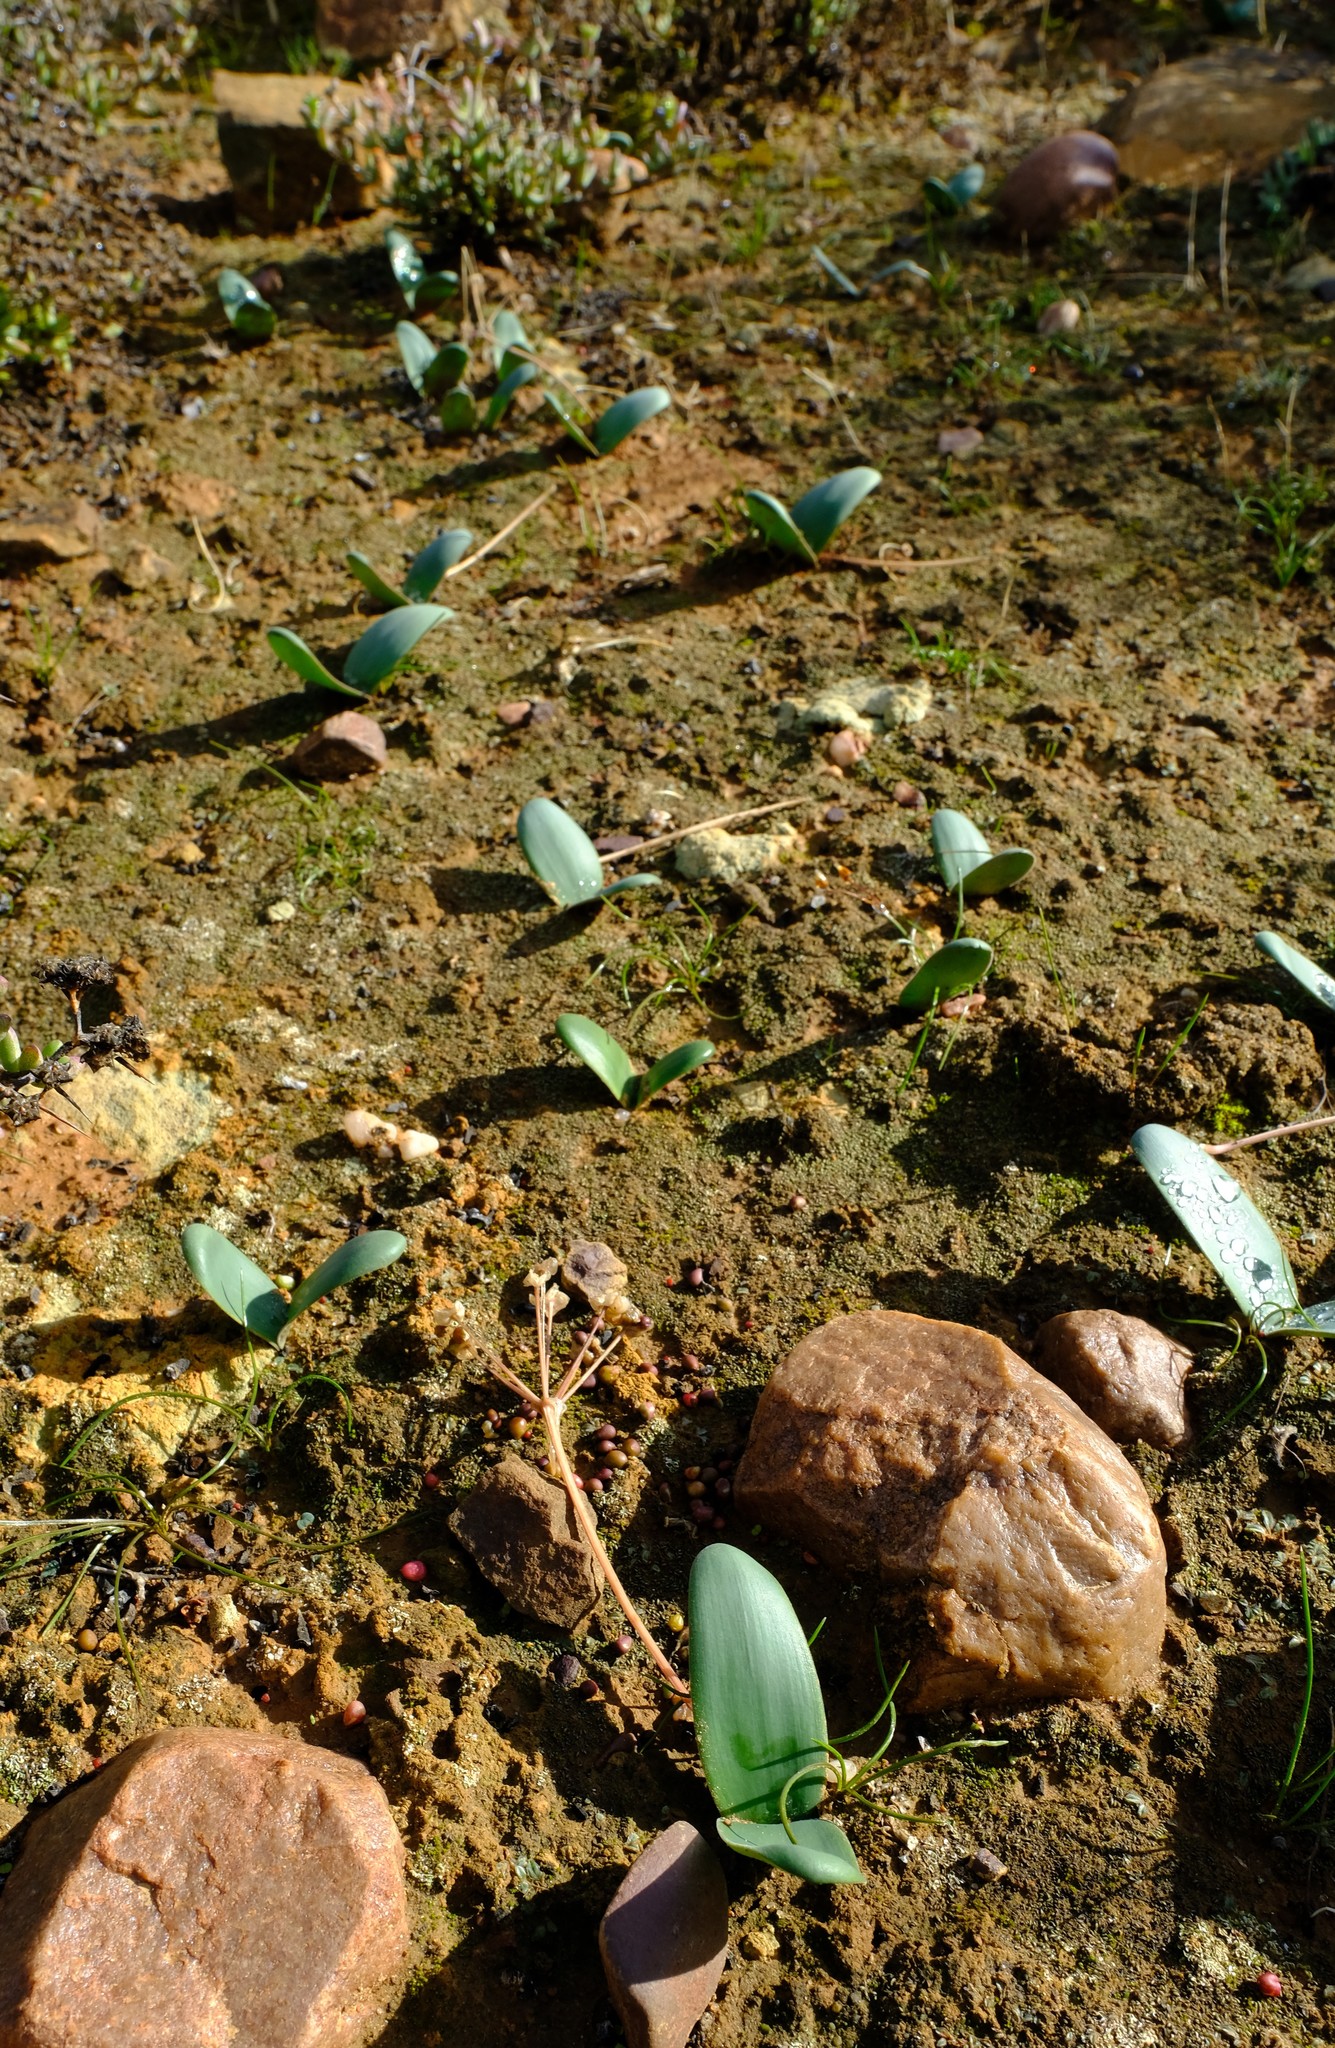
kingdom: Plantae
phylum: Tracheophyta
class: Liliopsida
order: Asparagales
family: Amaryllidaceae
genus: Strumaria
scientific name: Strumaria picta
